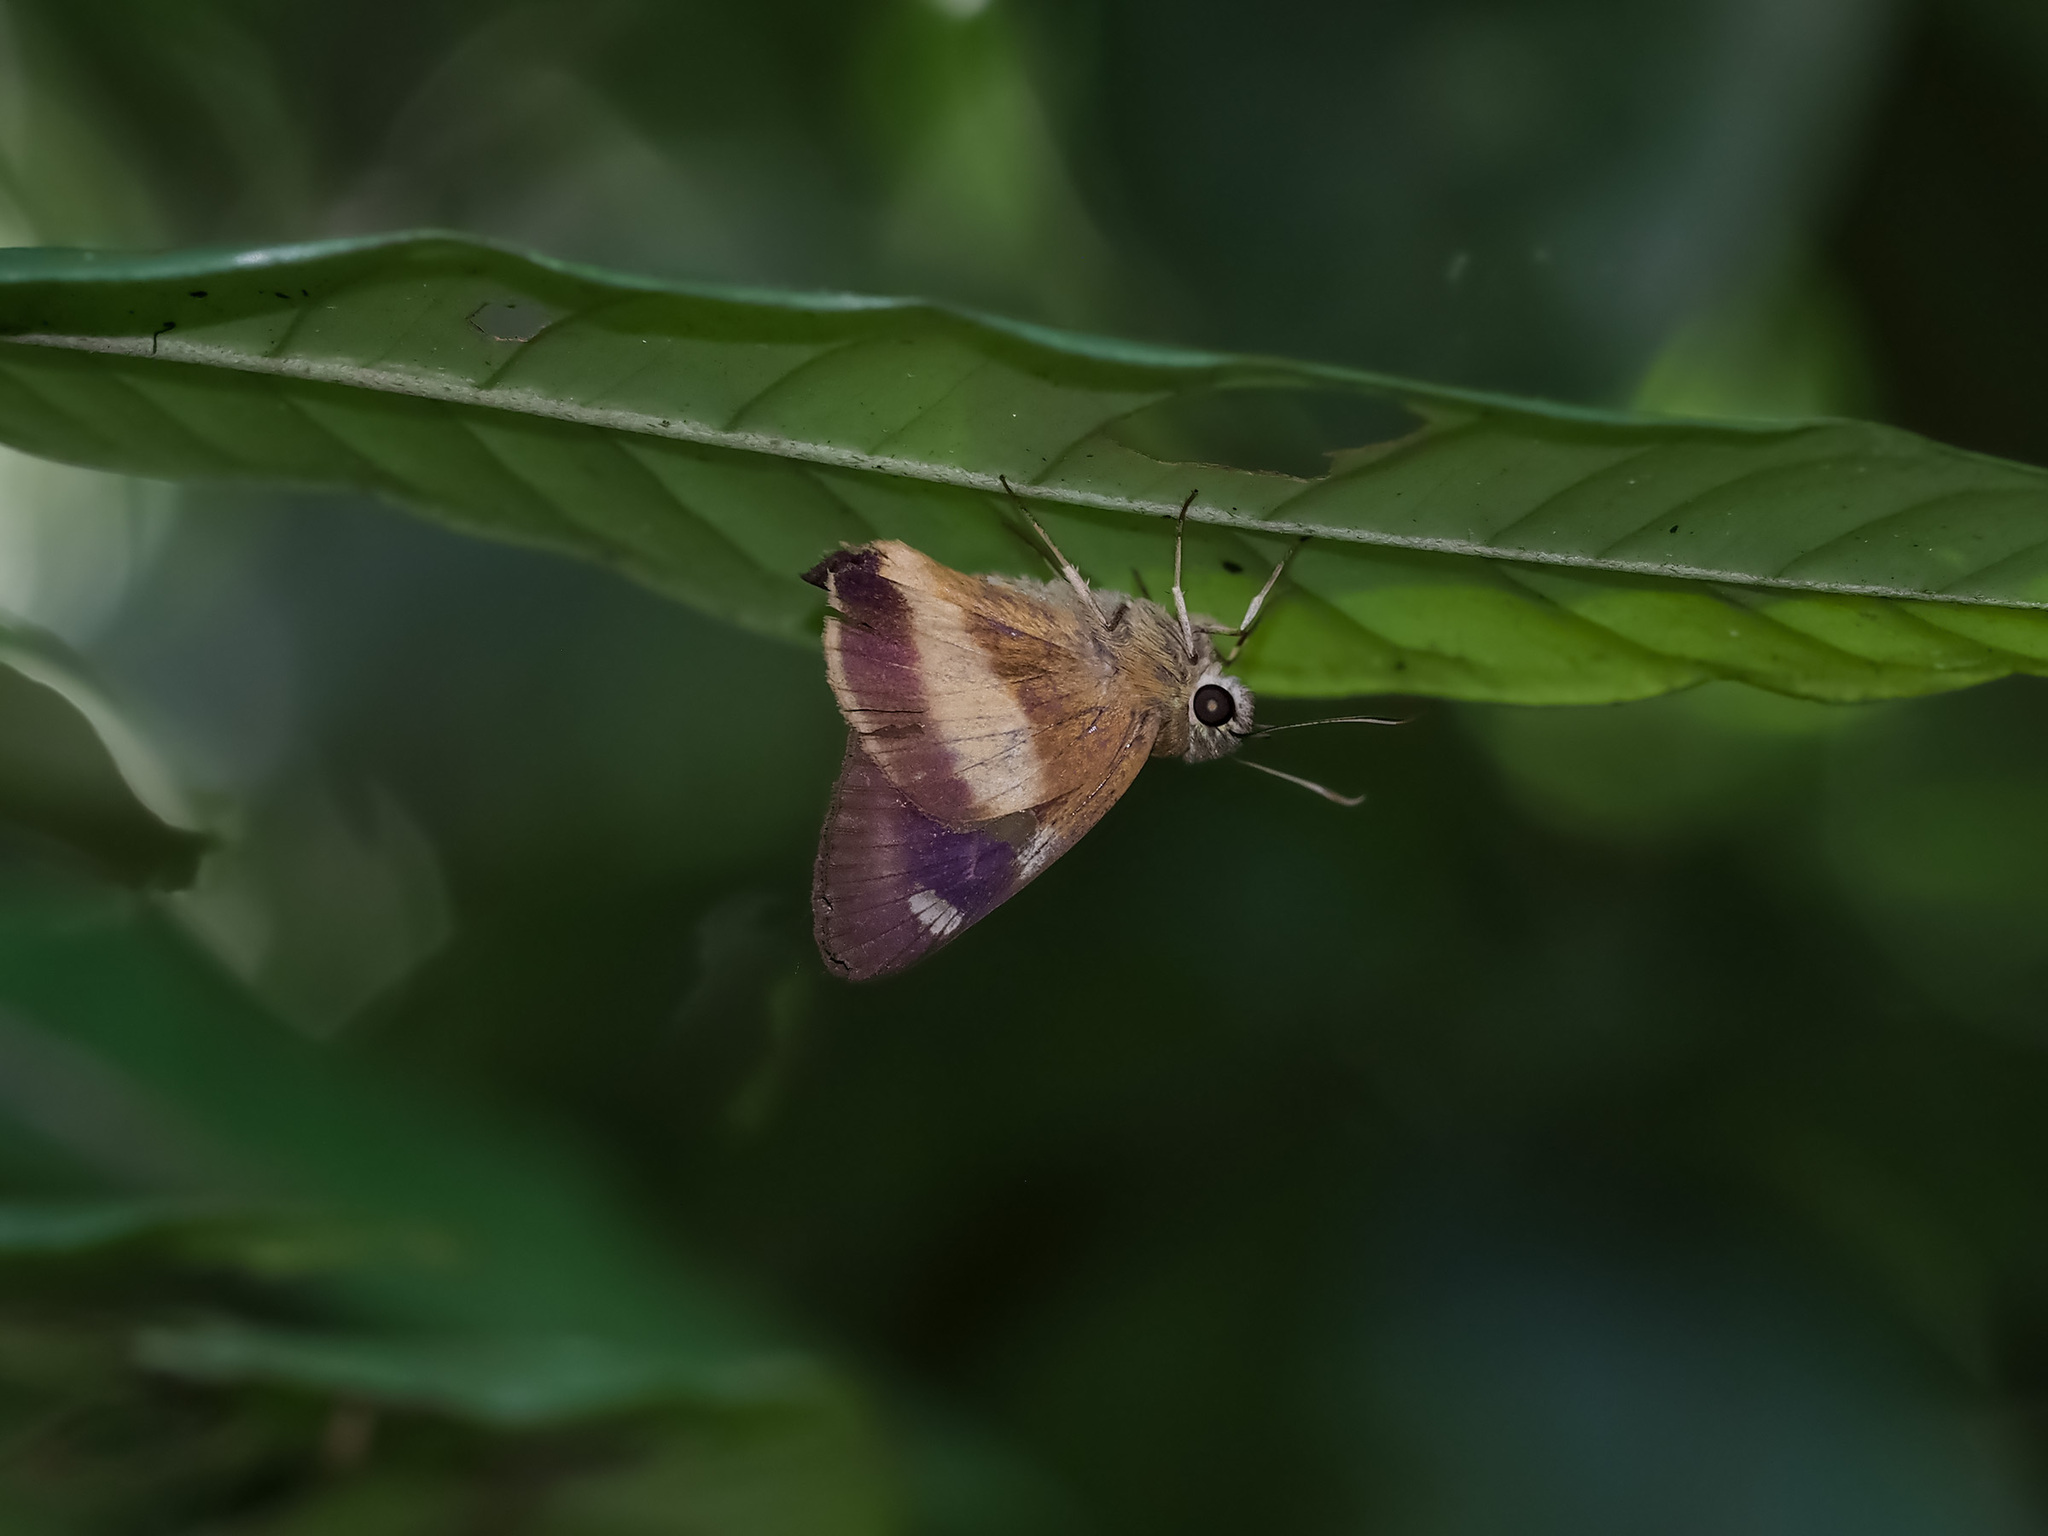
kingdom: Animalia
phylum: Arthropoda
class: Insecta
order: Lepidoptera
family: Hesperiidae
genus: Hasora
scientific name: Hasora schoenherr
